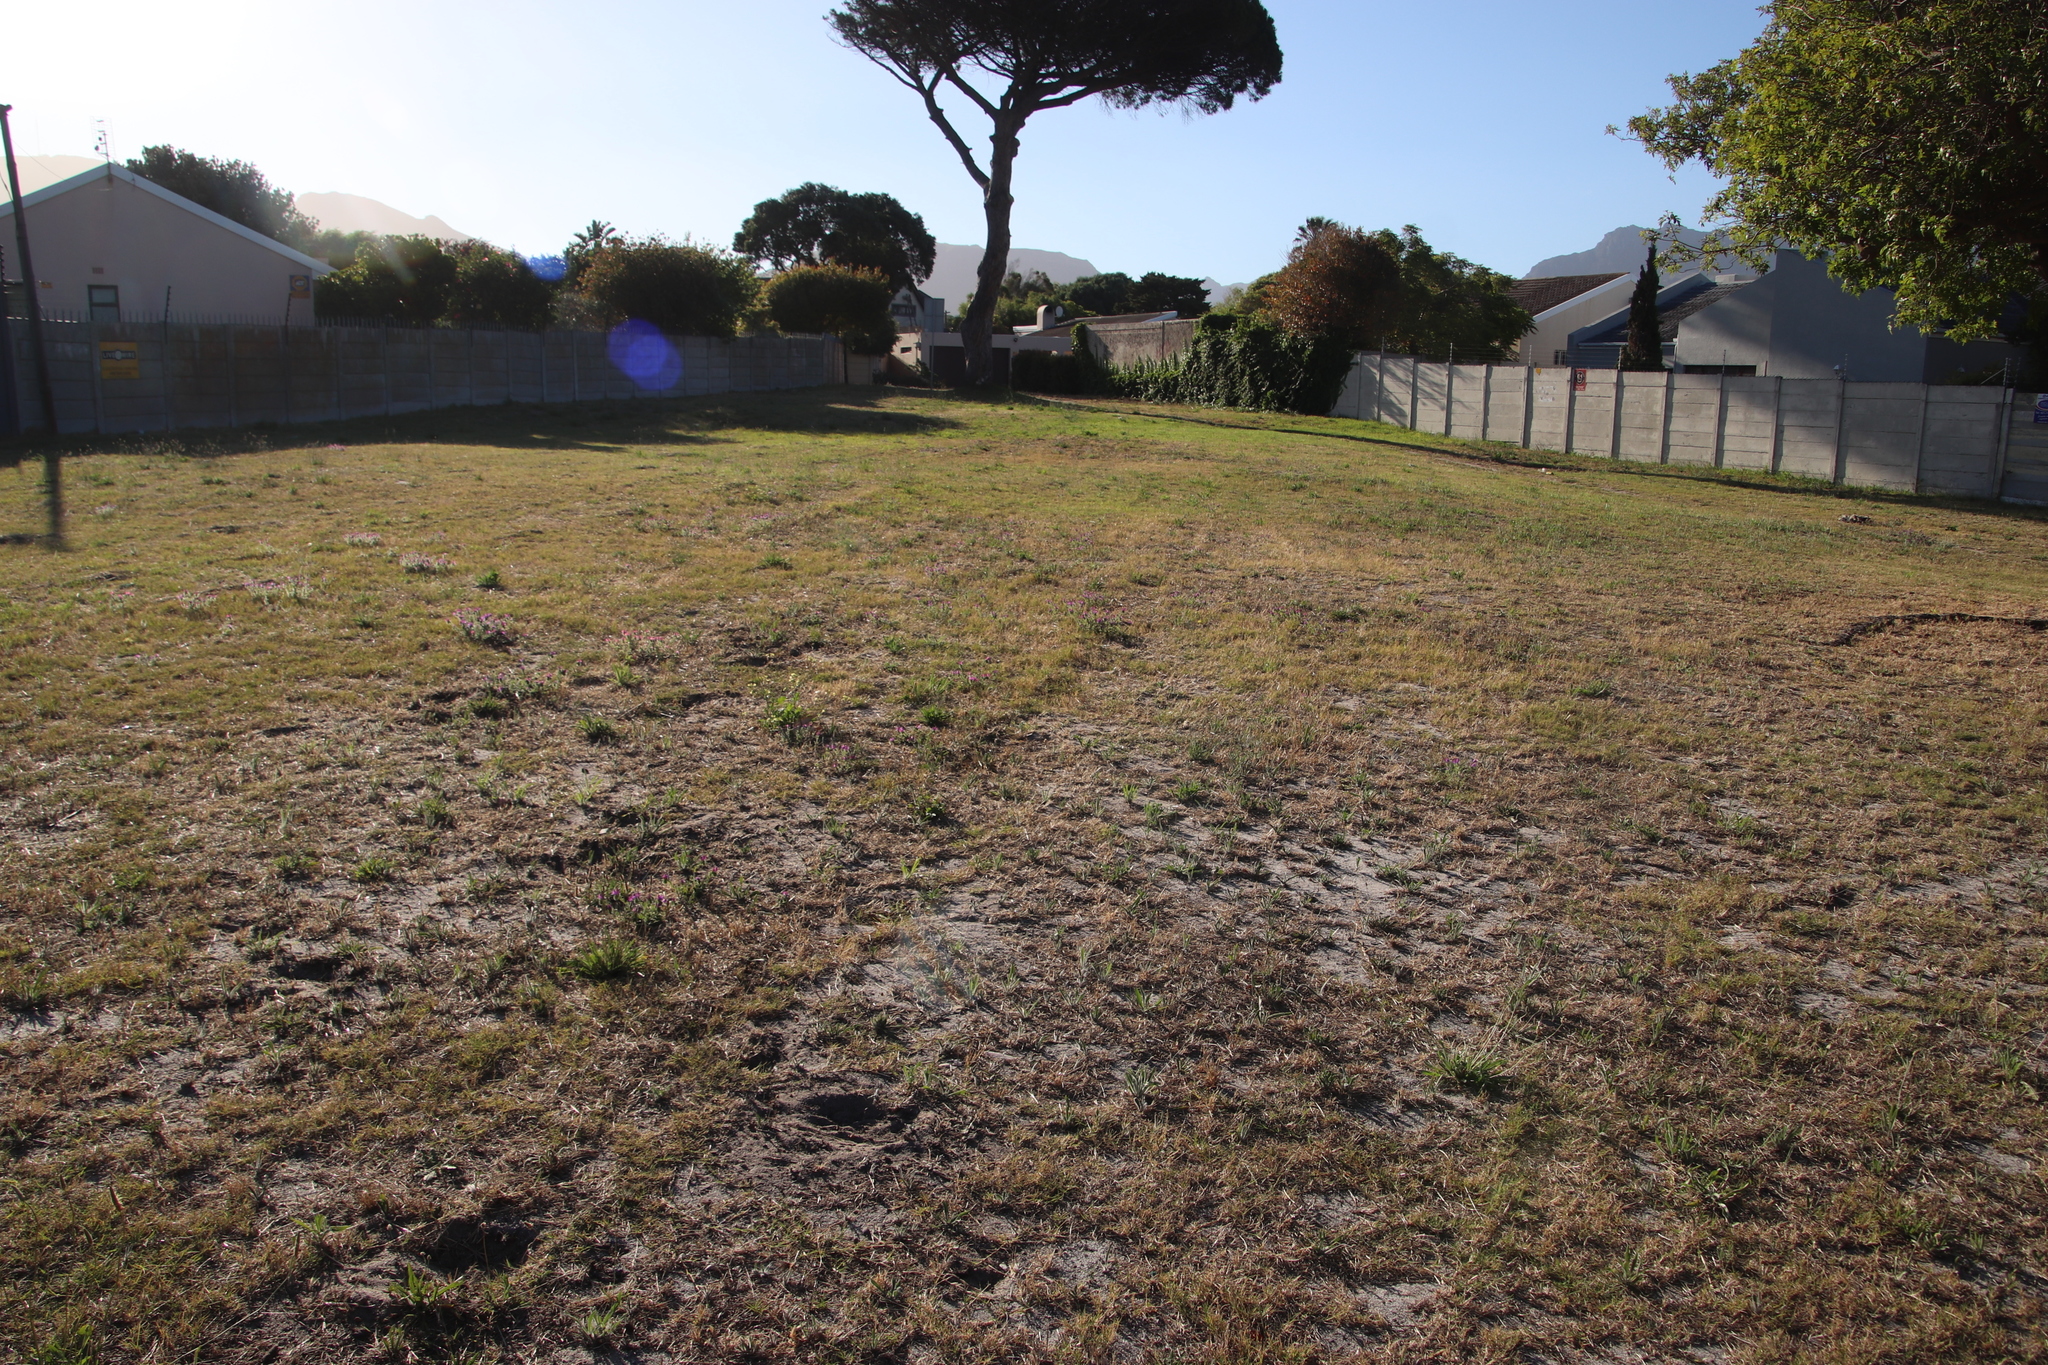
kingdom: Plantae
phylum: Tracheophyta
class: Liliopsida
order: Poales
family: Poaceae
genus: Cynodon
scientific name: Cynodon dactylon
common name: Bermuda grass
